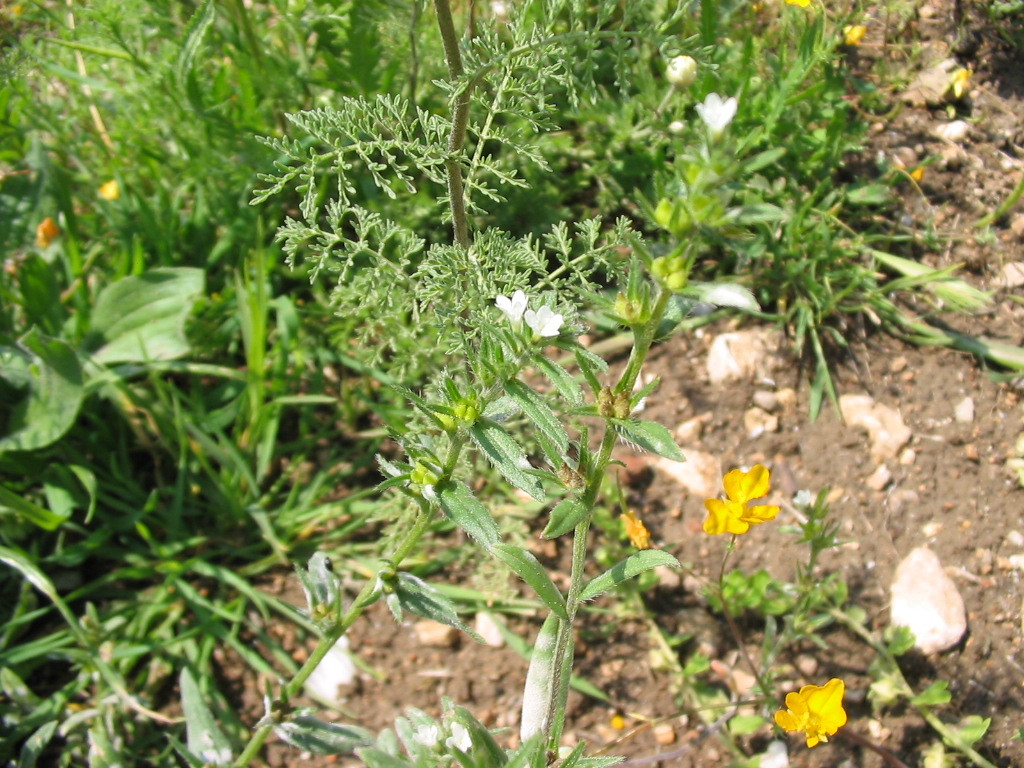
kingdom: Plantae
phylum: Tracheophyta
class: Magnoliopsida
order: Boraginales
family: Boraginaceae
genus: Asperugo
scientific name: Asperugo procumbens
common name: Madwort
